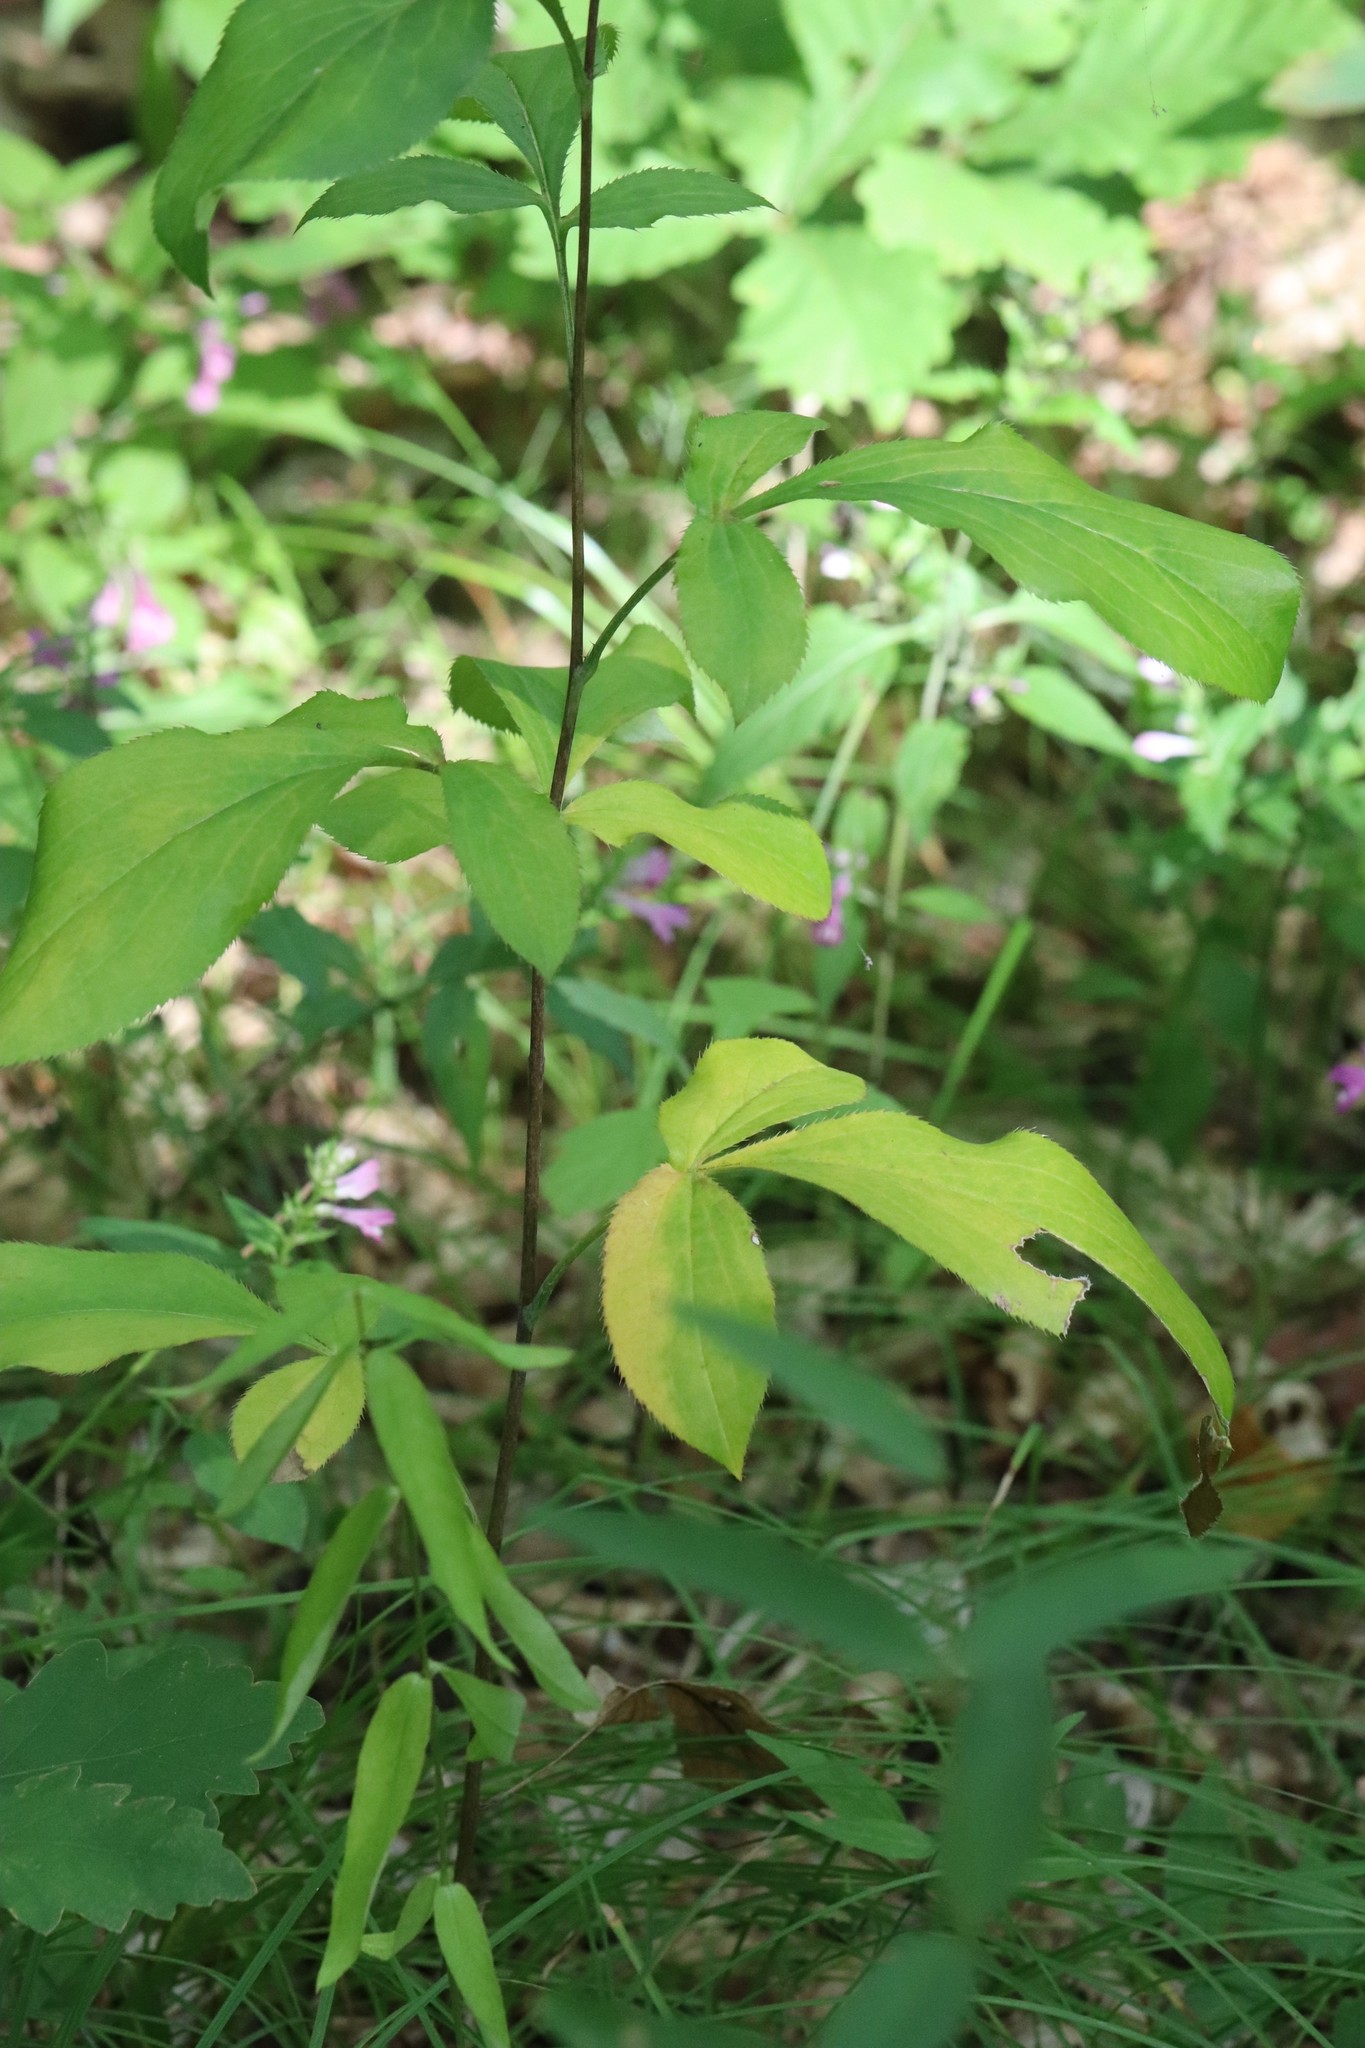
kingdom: Plantae
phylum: Tracheophyta
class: Magnoliopsida
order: Asterales
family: Asteraceae
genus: Atractylodes
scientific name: Atractylodes lancea
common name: Southern tsangshu
